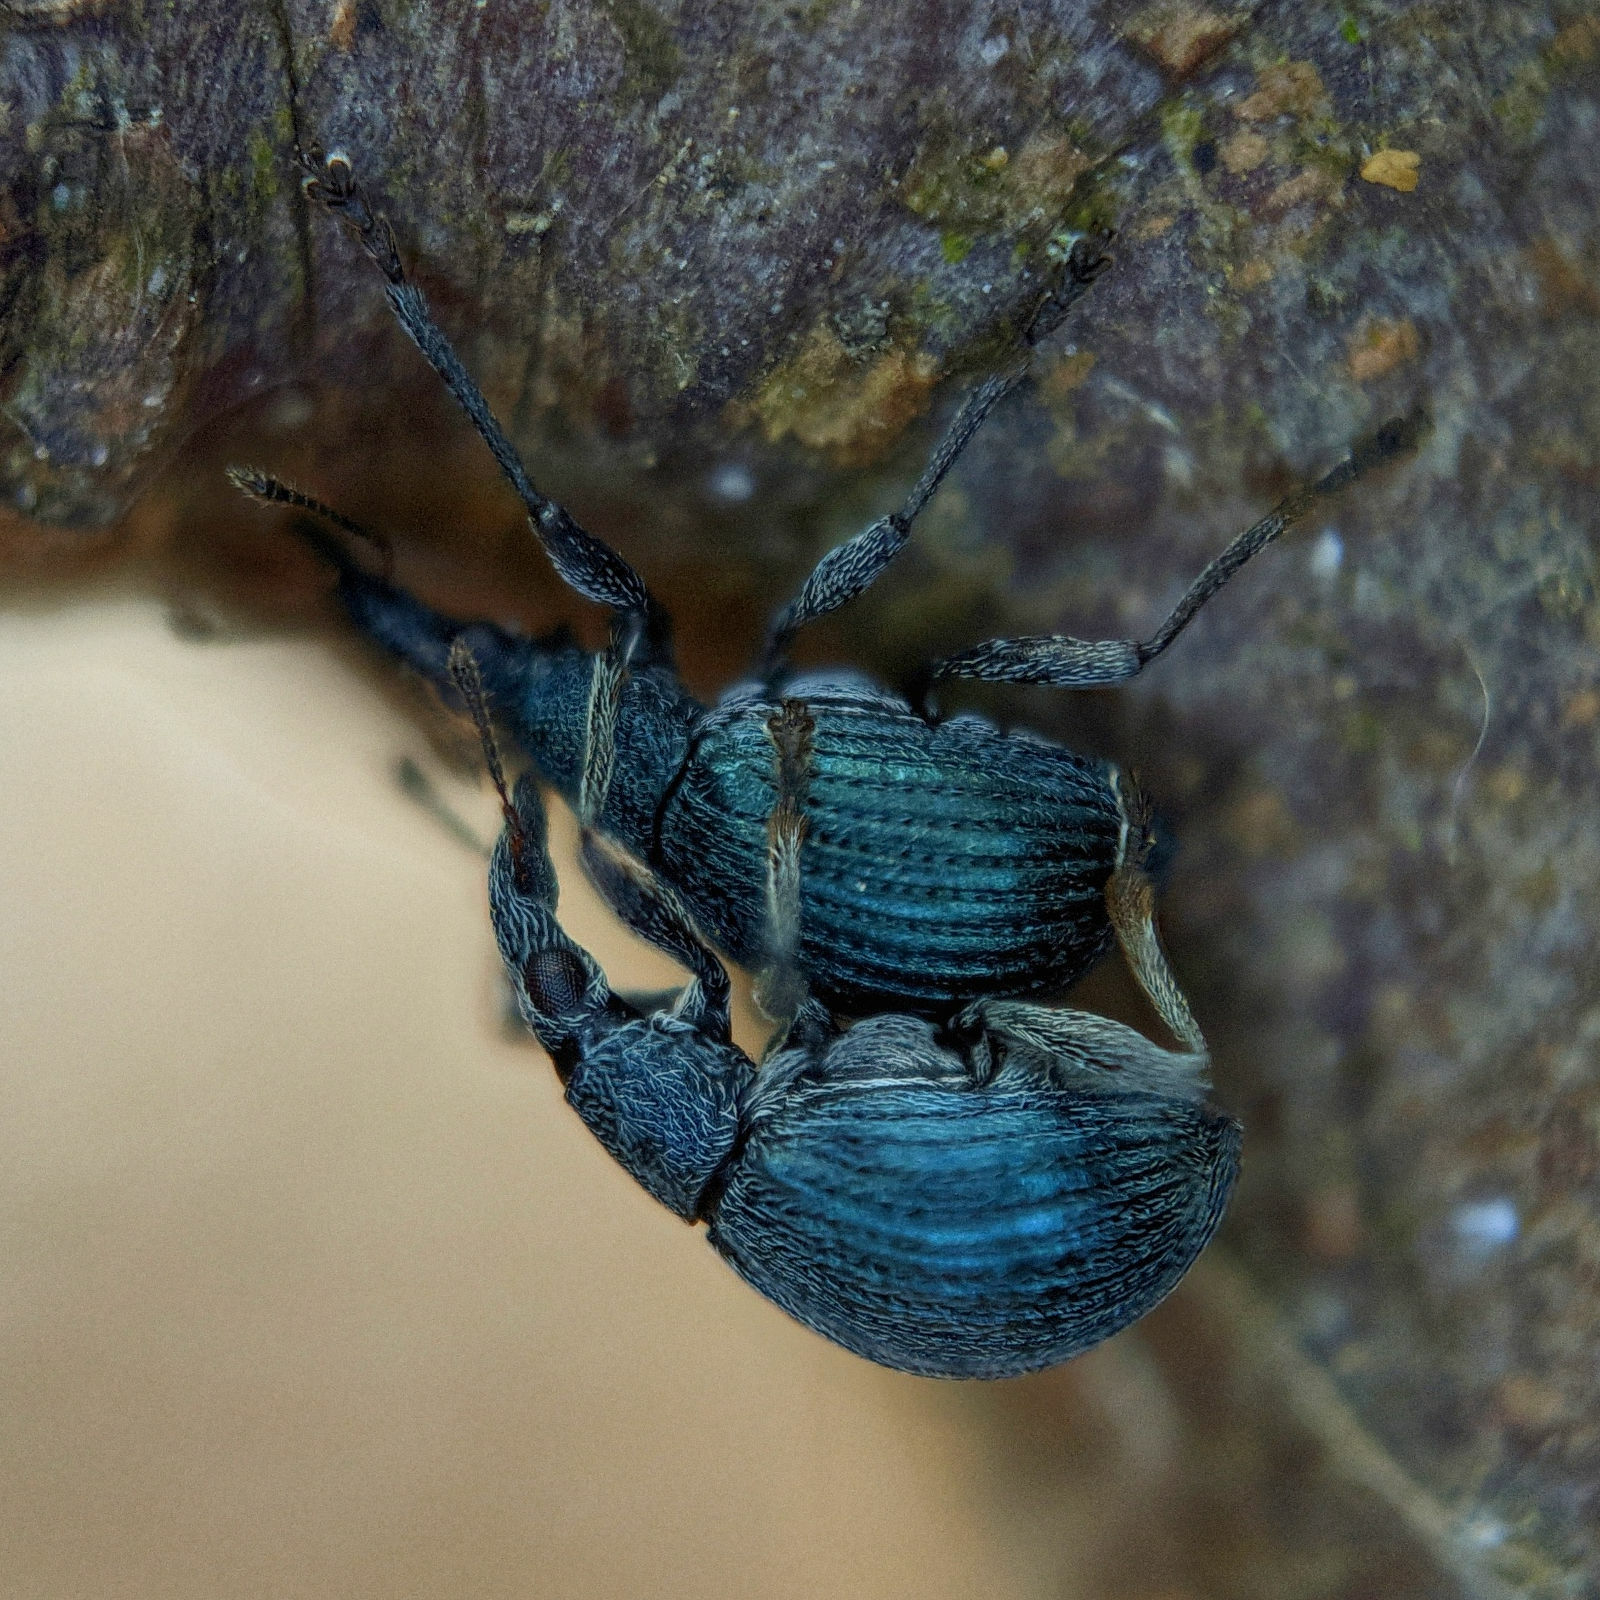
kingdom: Animalia
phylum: Arthropoda
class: Insecta
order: Coleoptera
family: Apionidae
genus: Oxystoma
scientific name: Oxystoma pomonae
